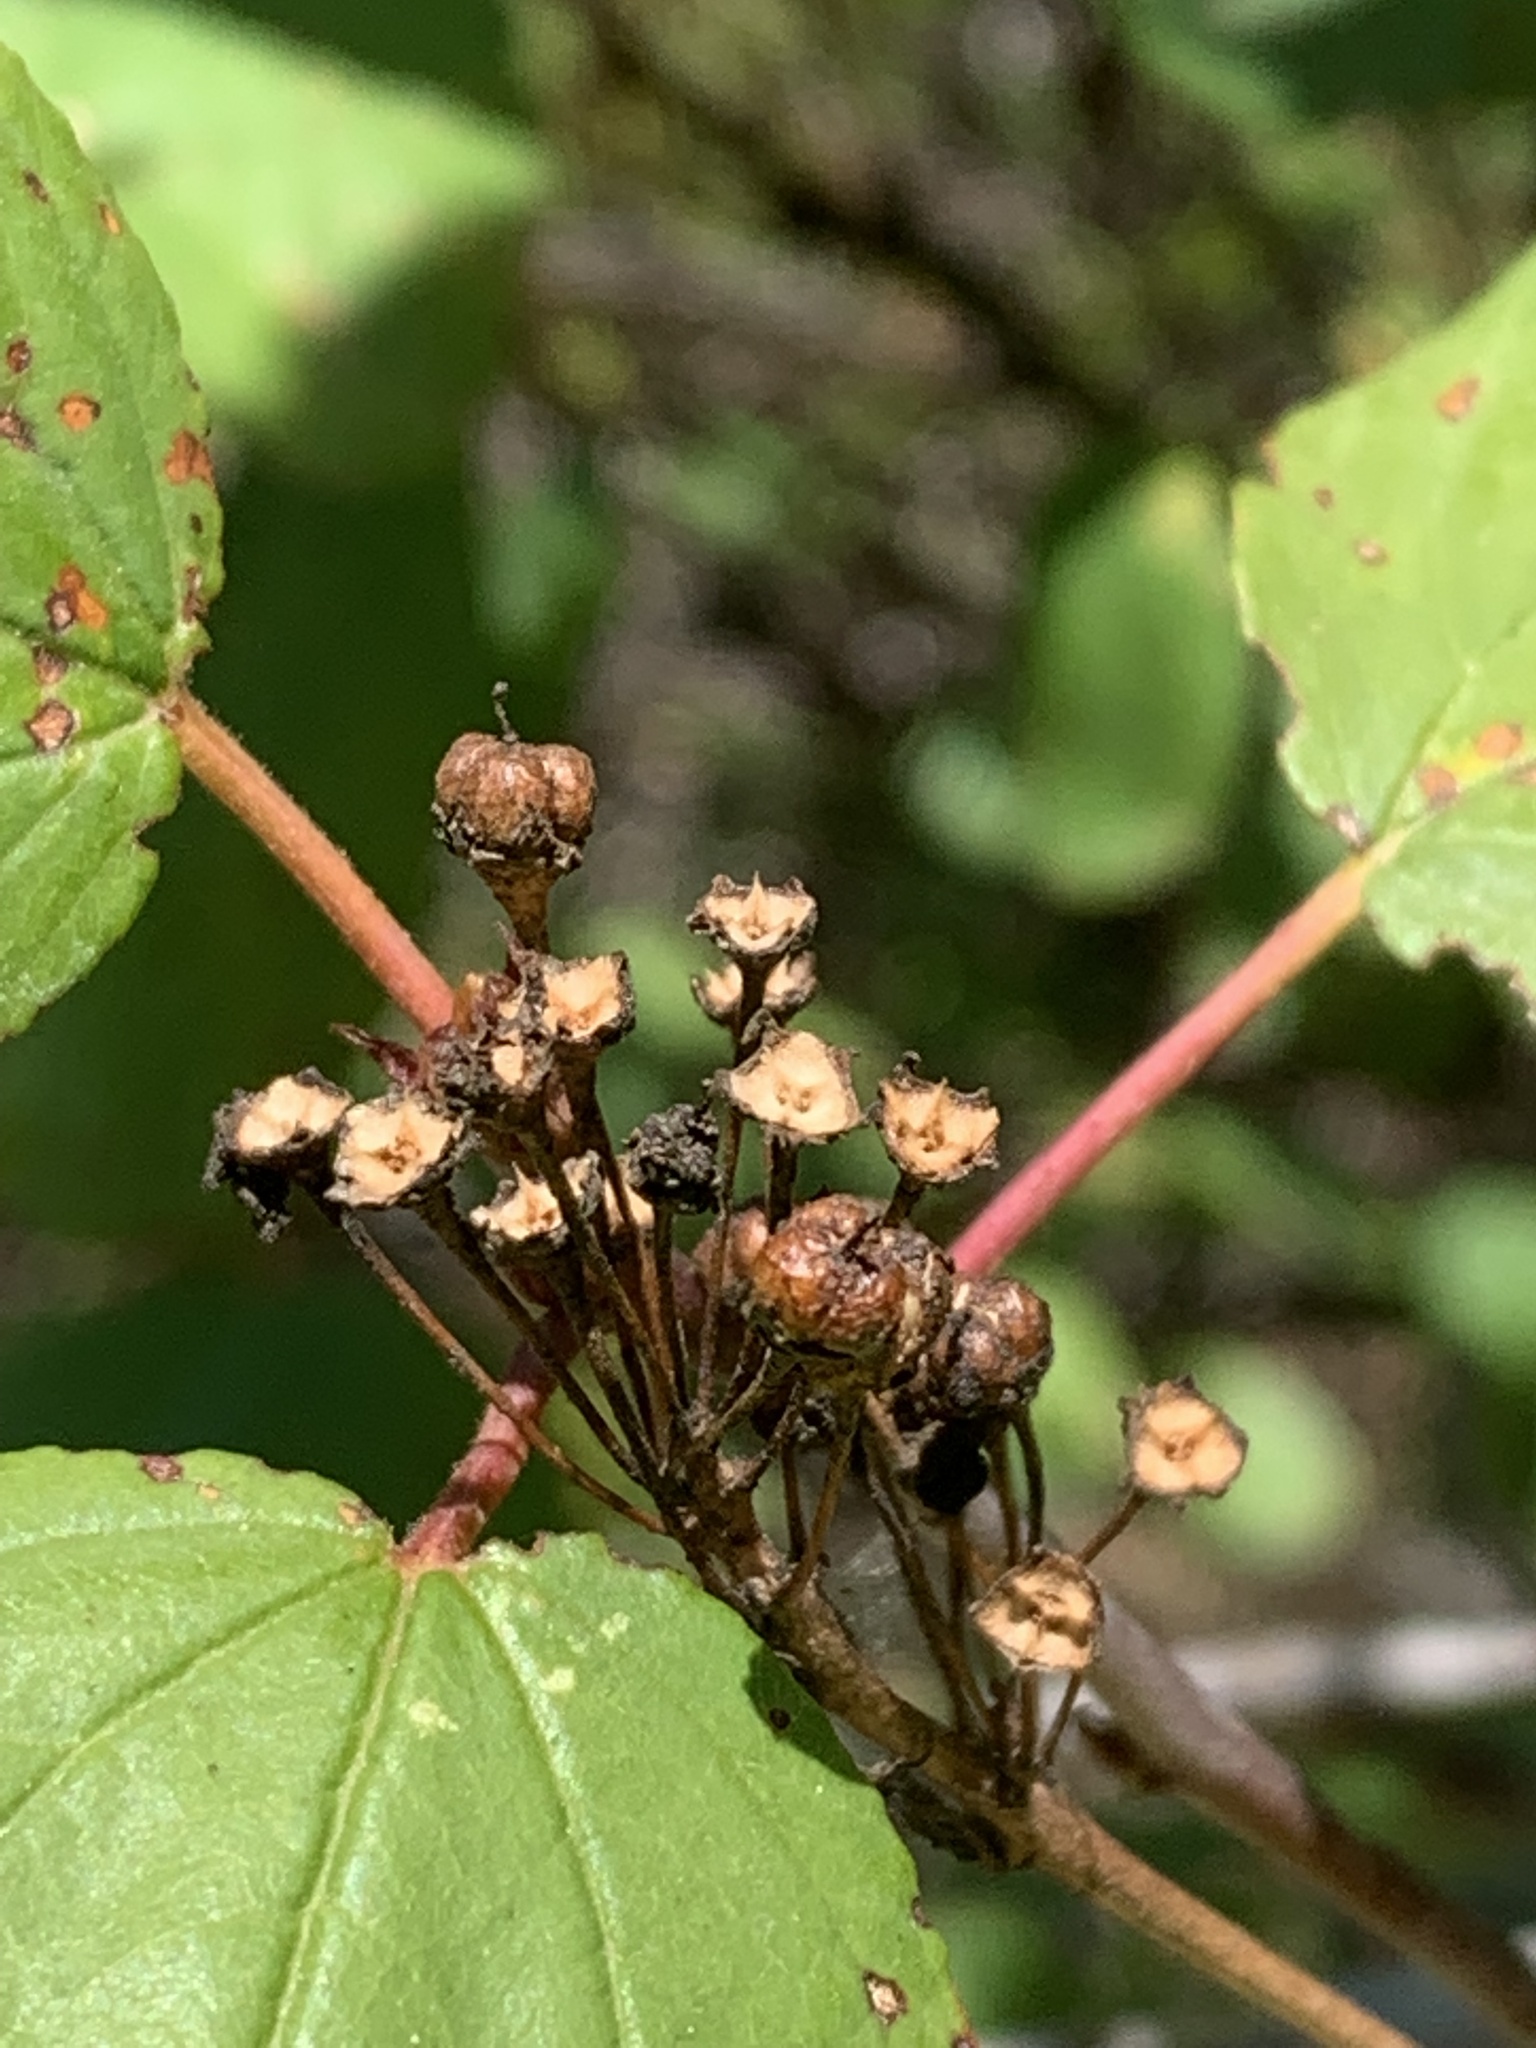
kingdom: Plantae
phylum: Tracheophyta
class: Magnoliopsida
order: Rosales
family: Rhamnaceae
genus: Ceanothus
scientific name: Ceanothus sanguineus
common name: Teatree
